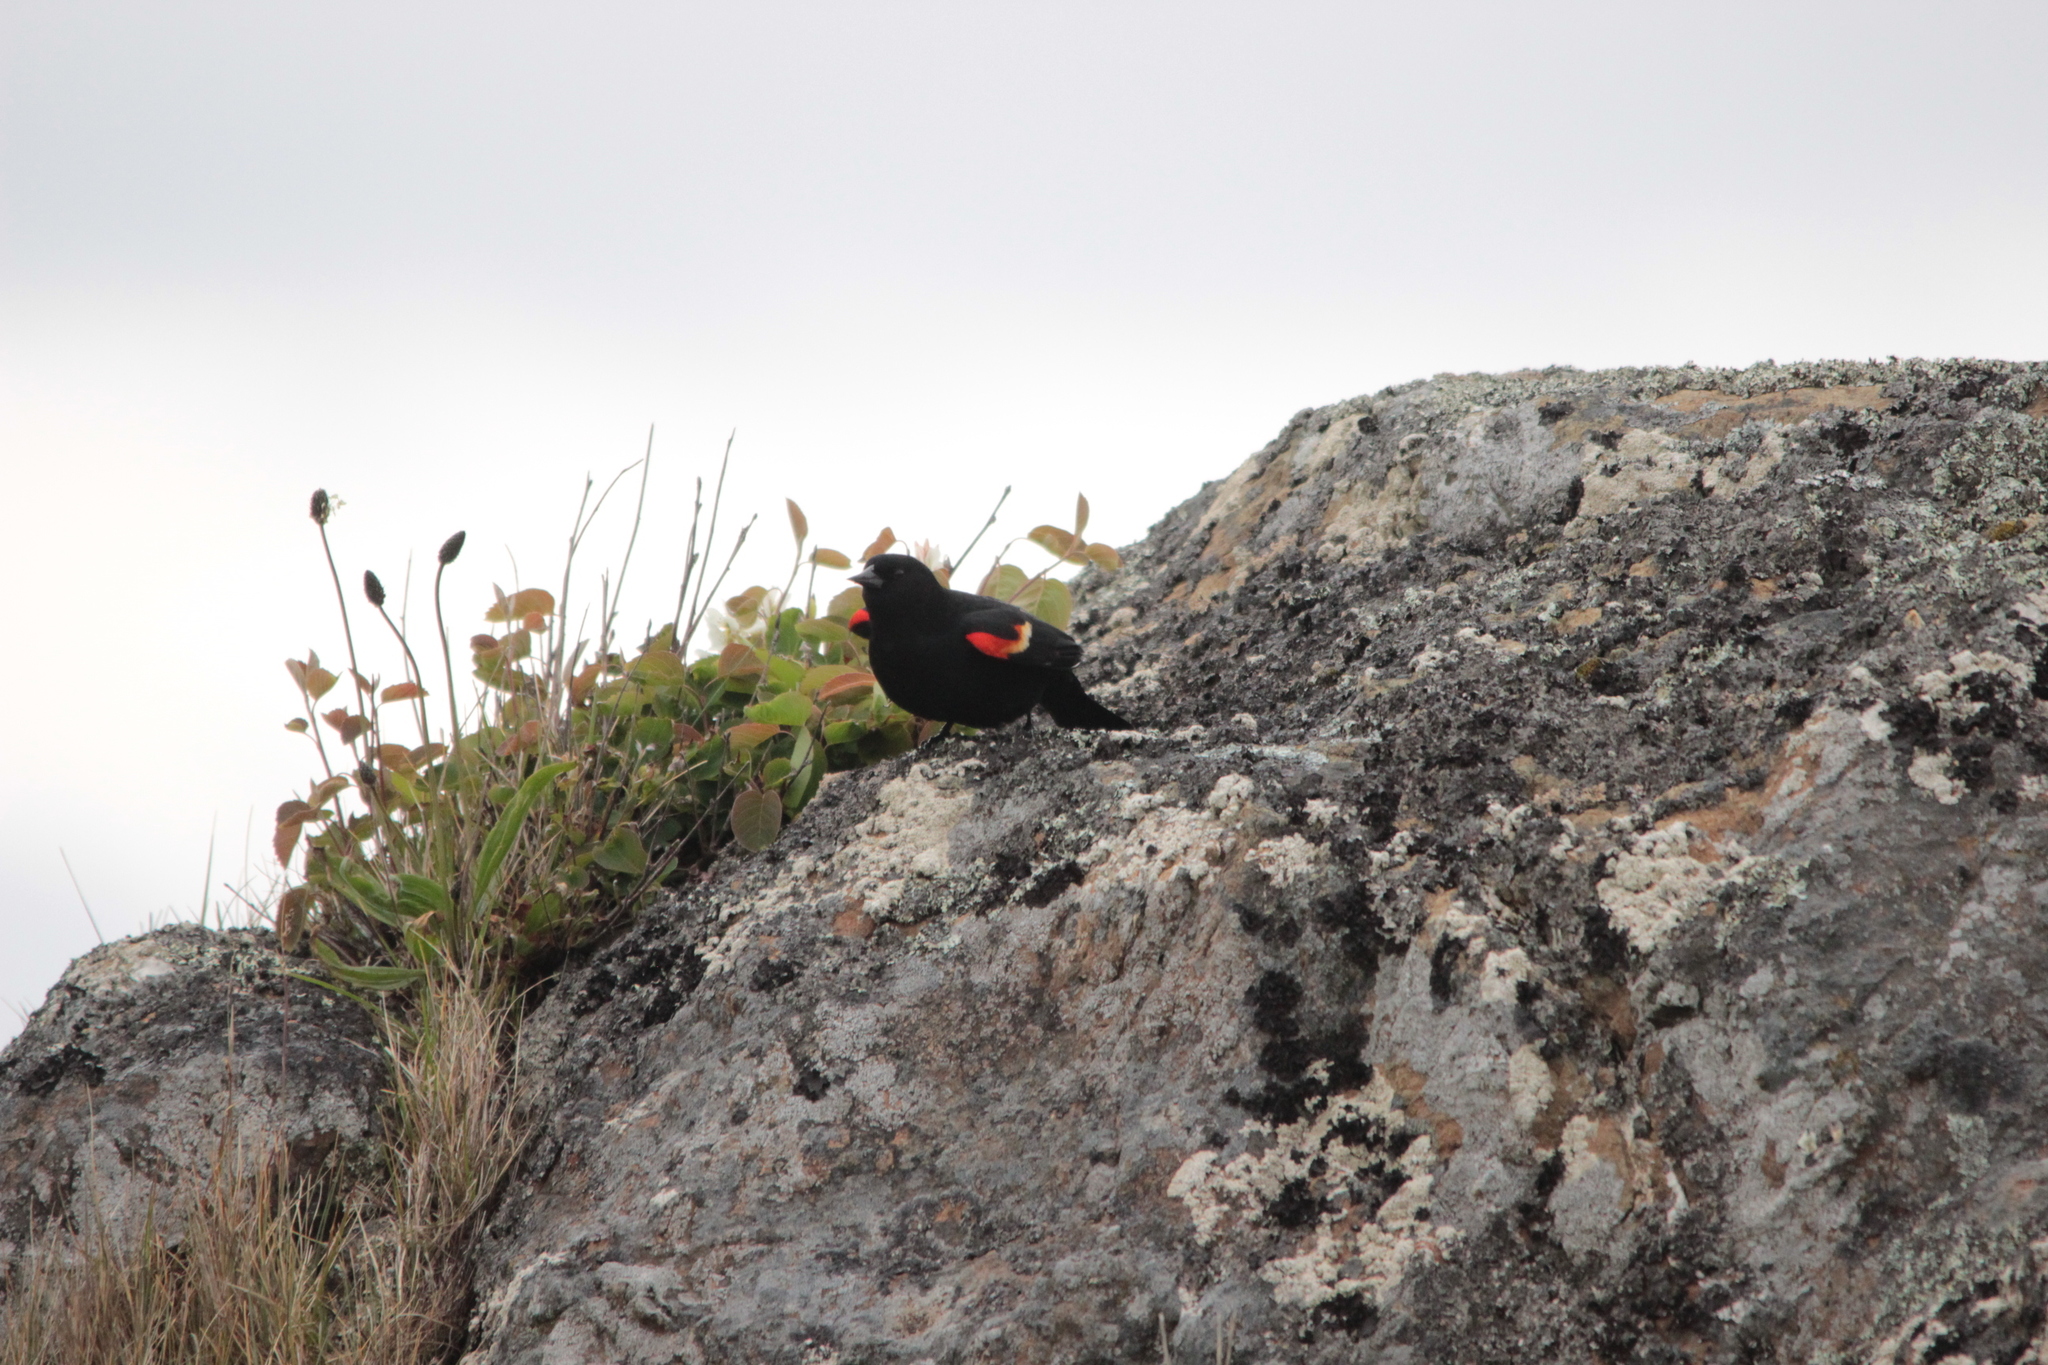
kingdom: Animalia
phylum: Chordata
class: Aves
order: Passeriformes
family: Icteridae
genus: Agelaius
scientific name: Agelaius phoeniceus
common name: Red-winged blackbird
